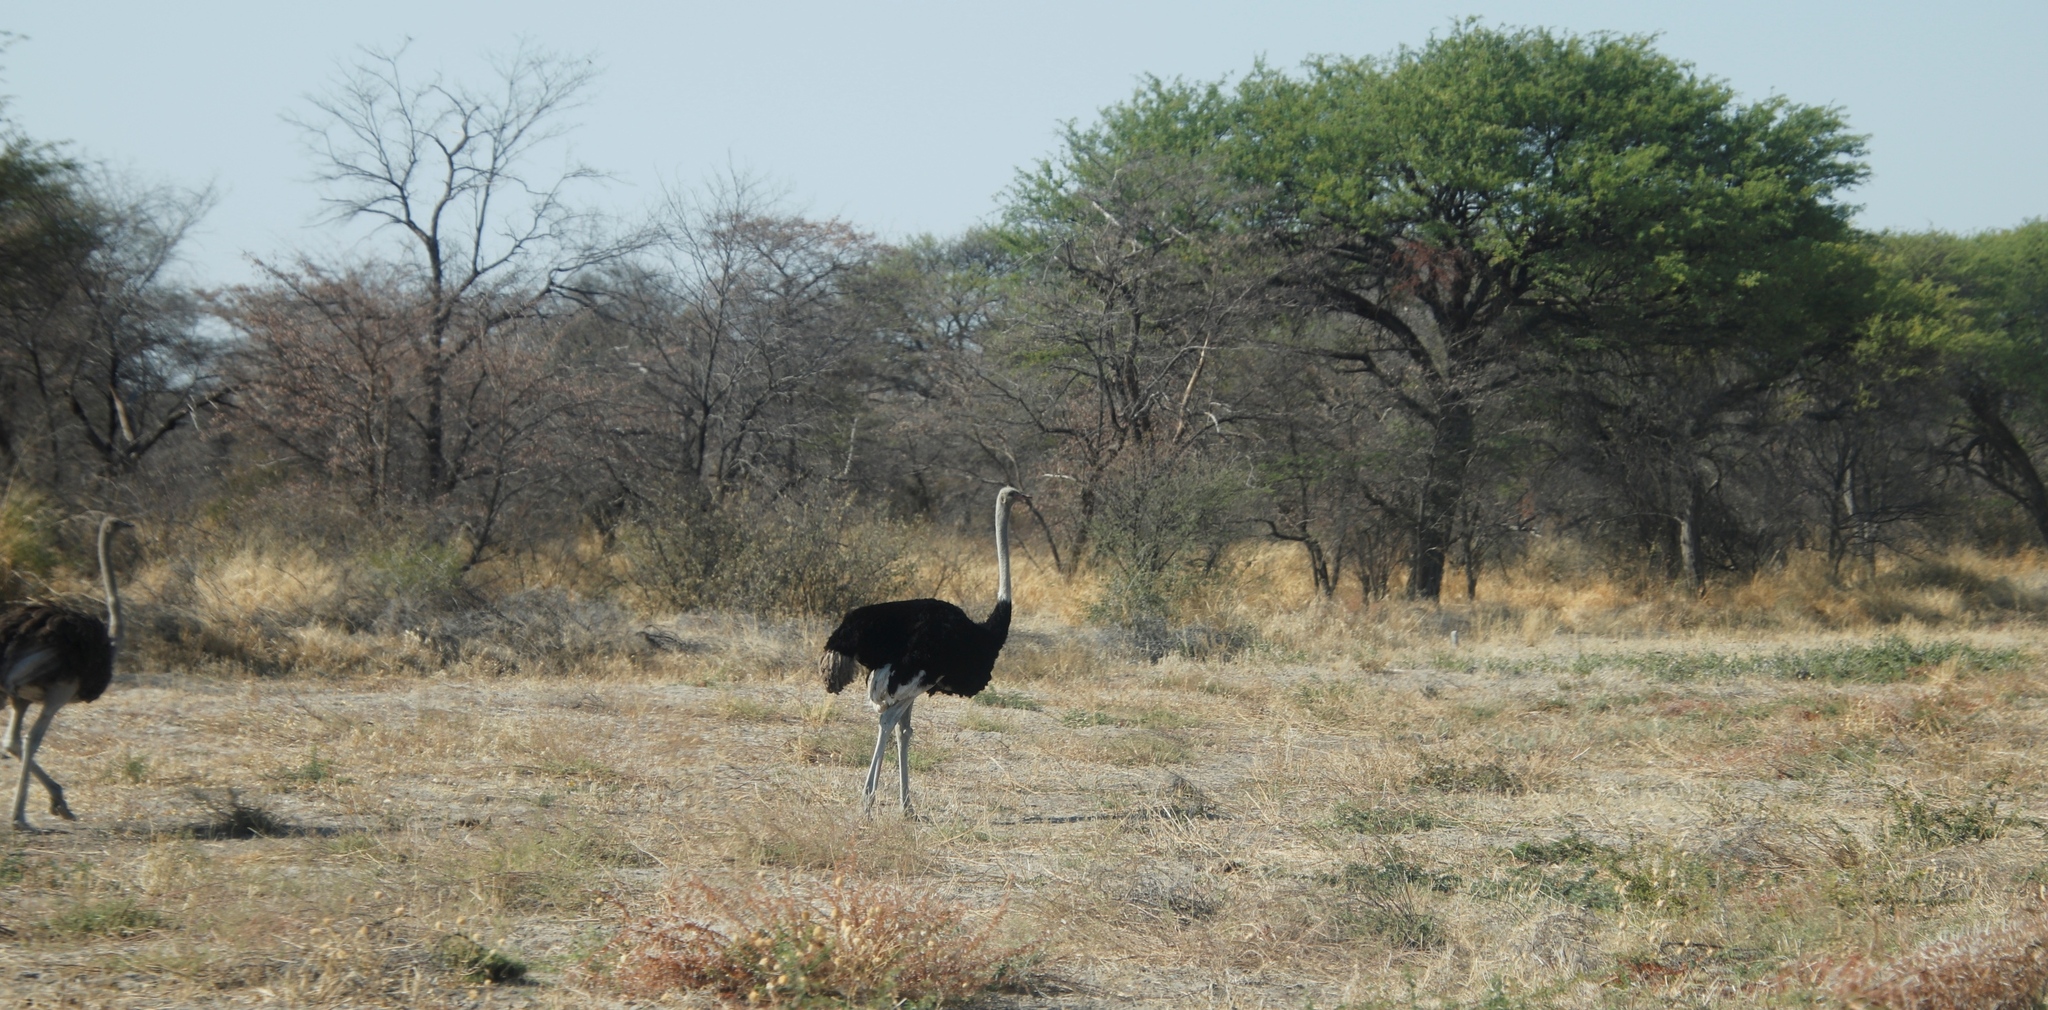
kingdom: Animalia
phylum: Chordata
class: Aves
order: Struthioniformes
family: Struthionidae
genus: Struthio
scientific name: Struthio camelus
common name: Common ostrich
